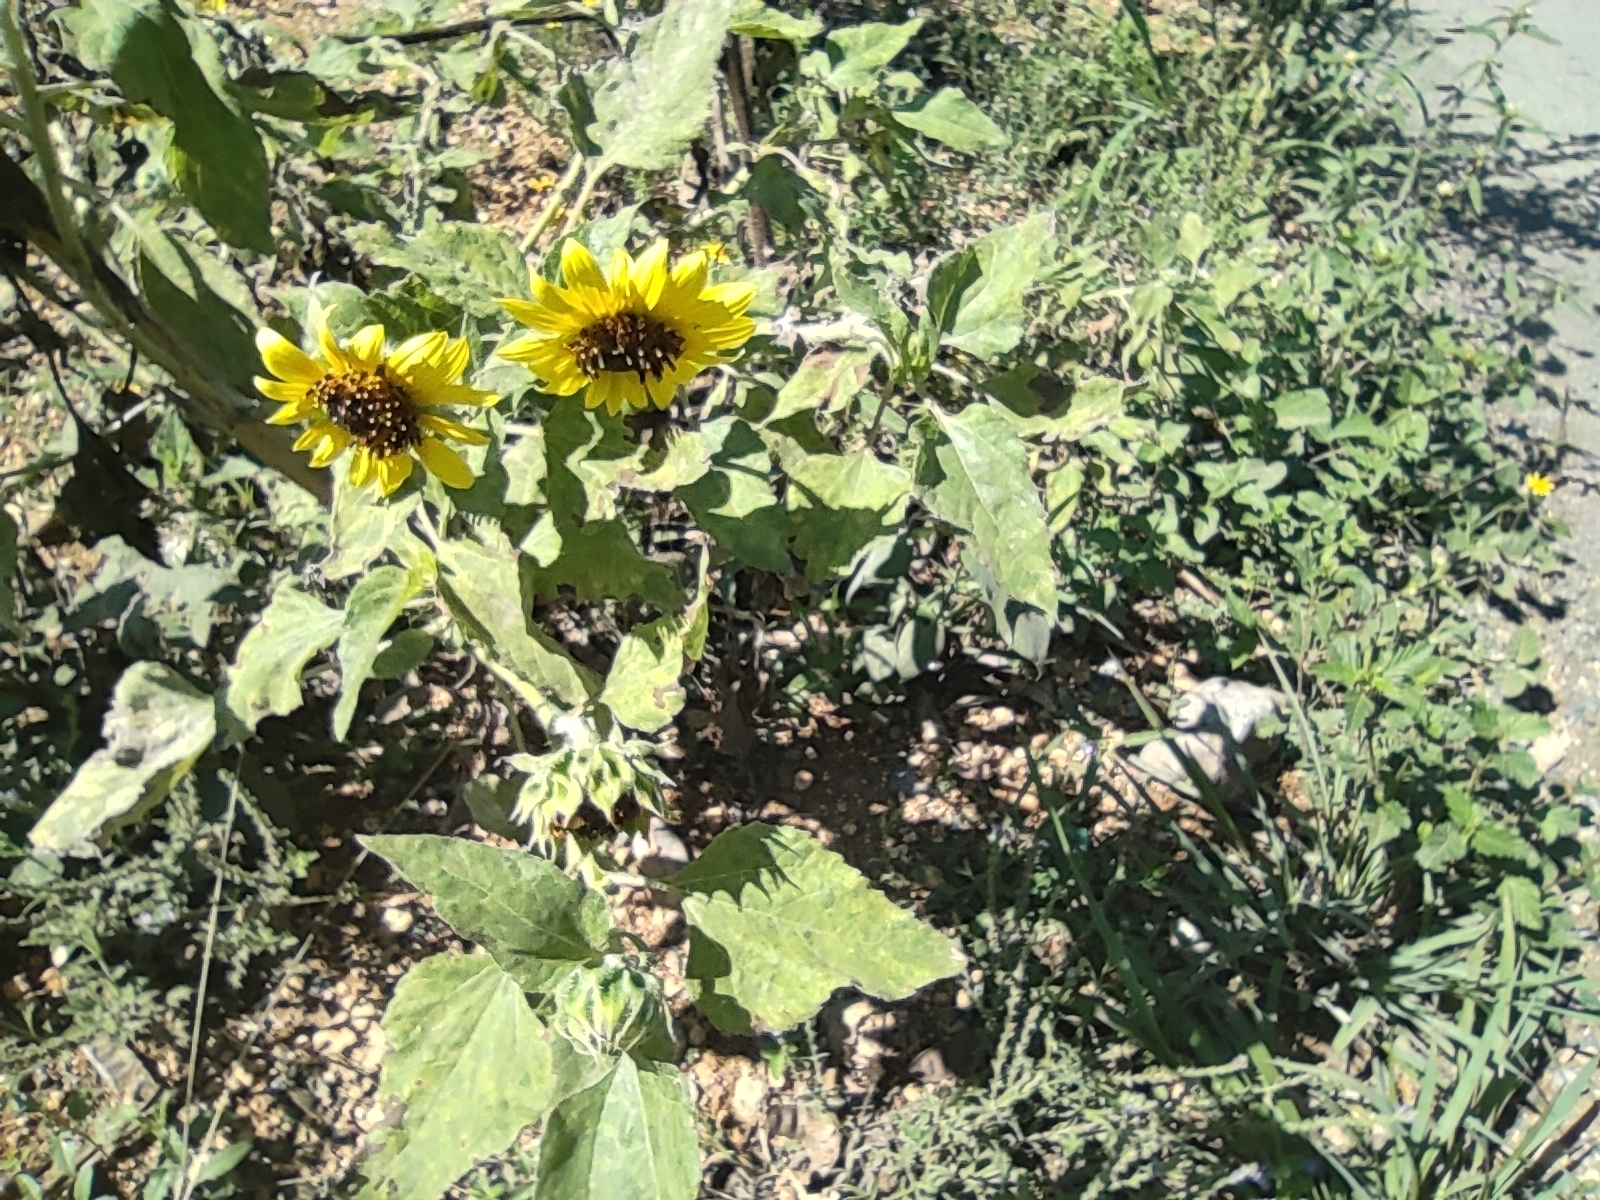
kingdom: Plantae
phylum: Tracheophyta
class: Magnoliopsida
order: Asterales
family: Asteraceae
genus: Helianthus
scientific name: Helianthus annuus
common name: Sunflower
